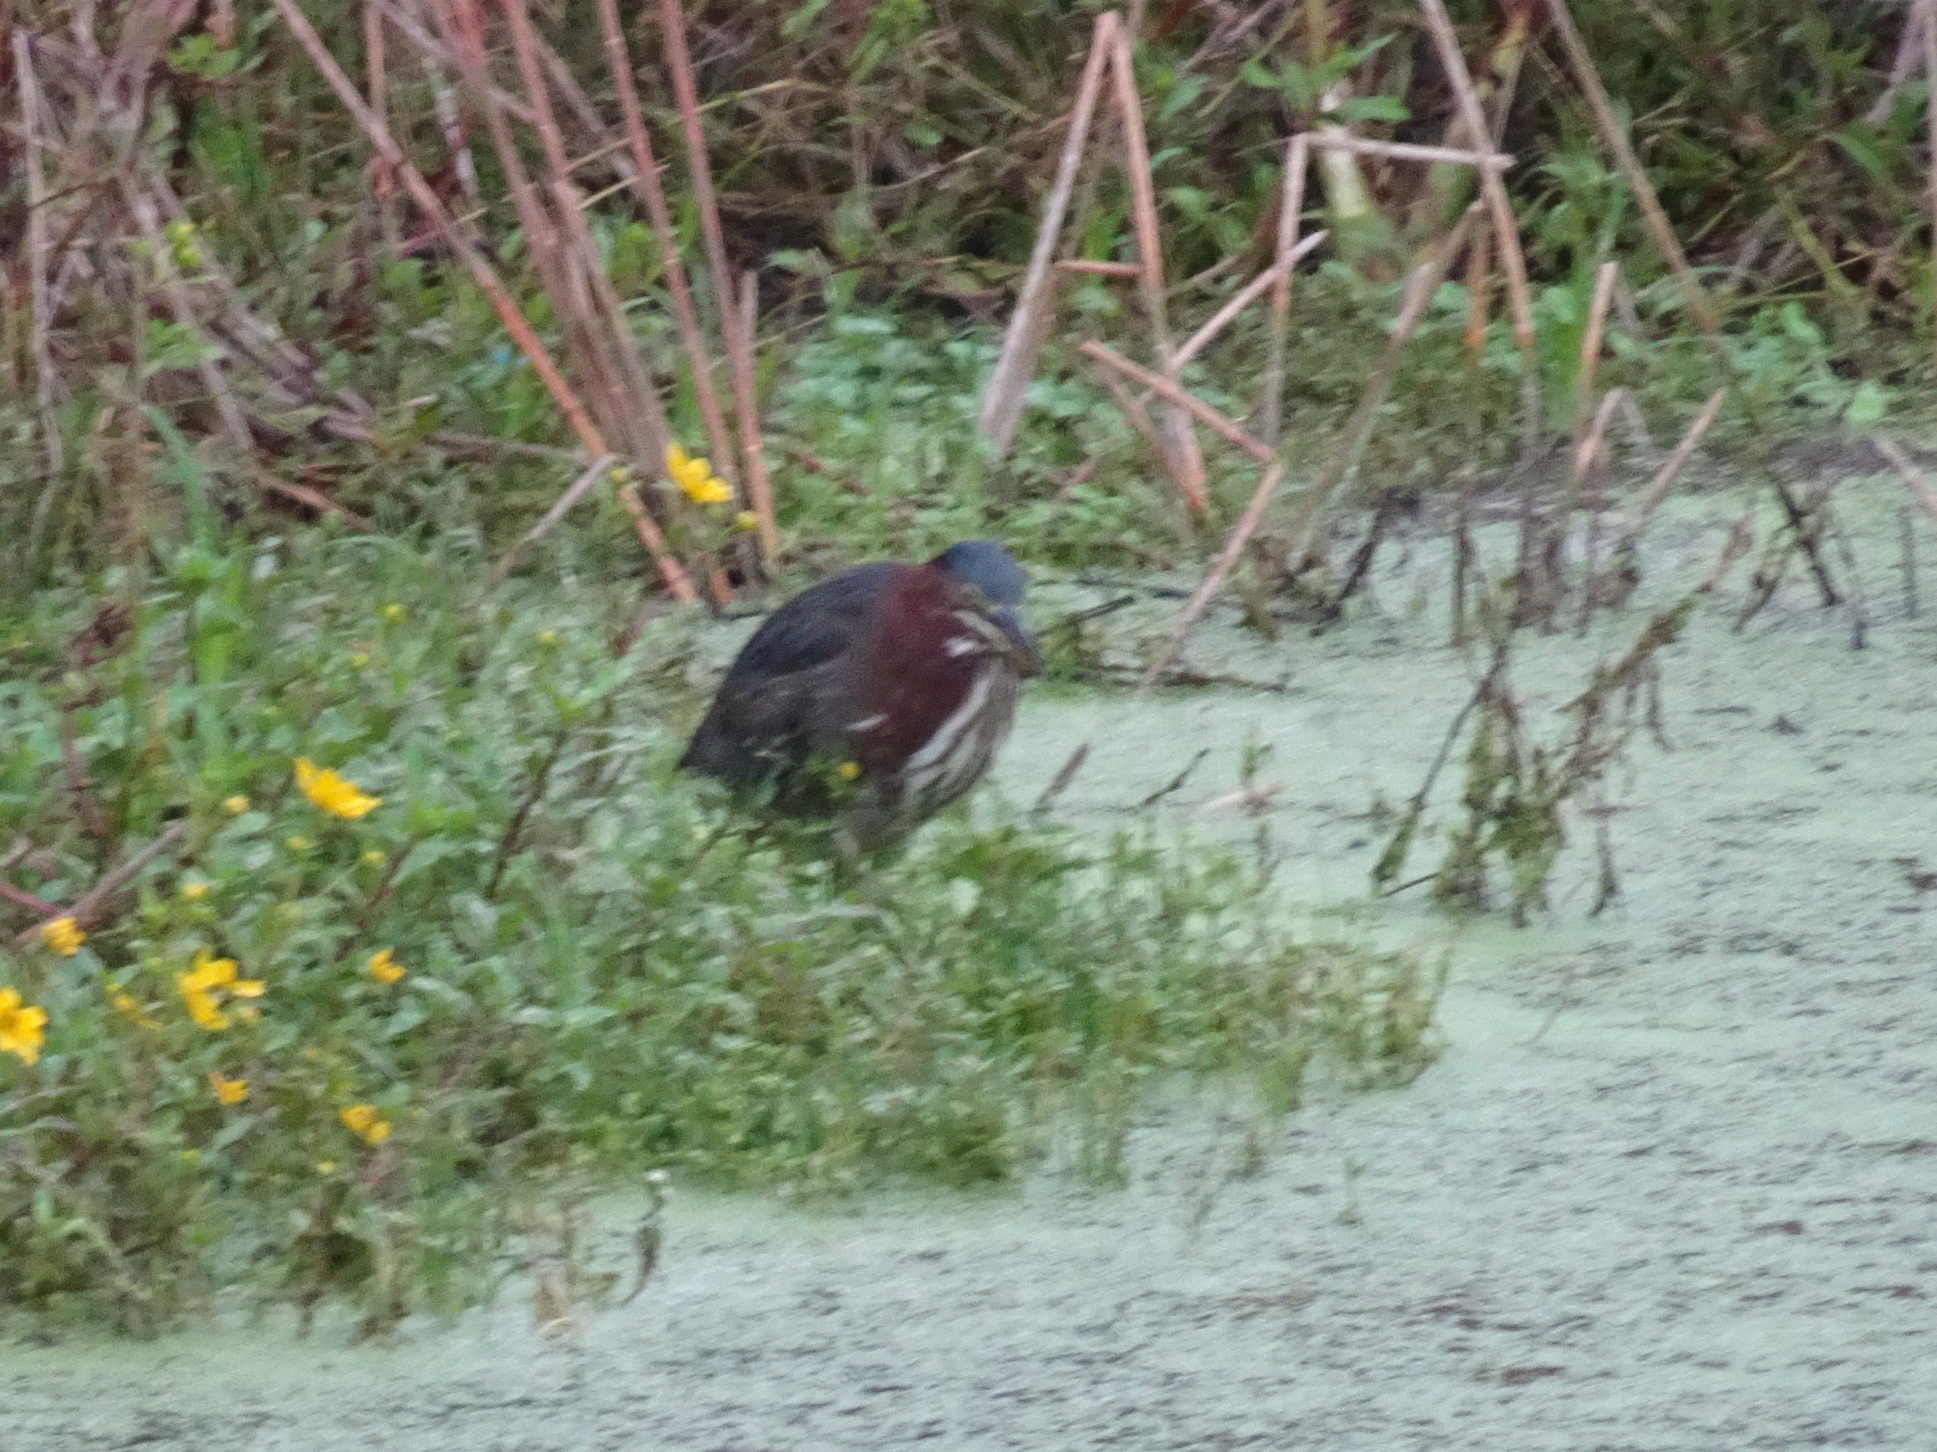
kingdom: Animalia
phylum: Chordata
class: Aves
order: Pelecaniformes
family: Ardeidae
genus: Butorides
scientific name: Butorides virescens
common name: Green heron
